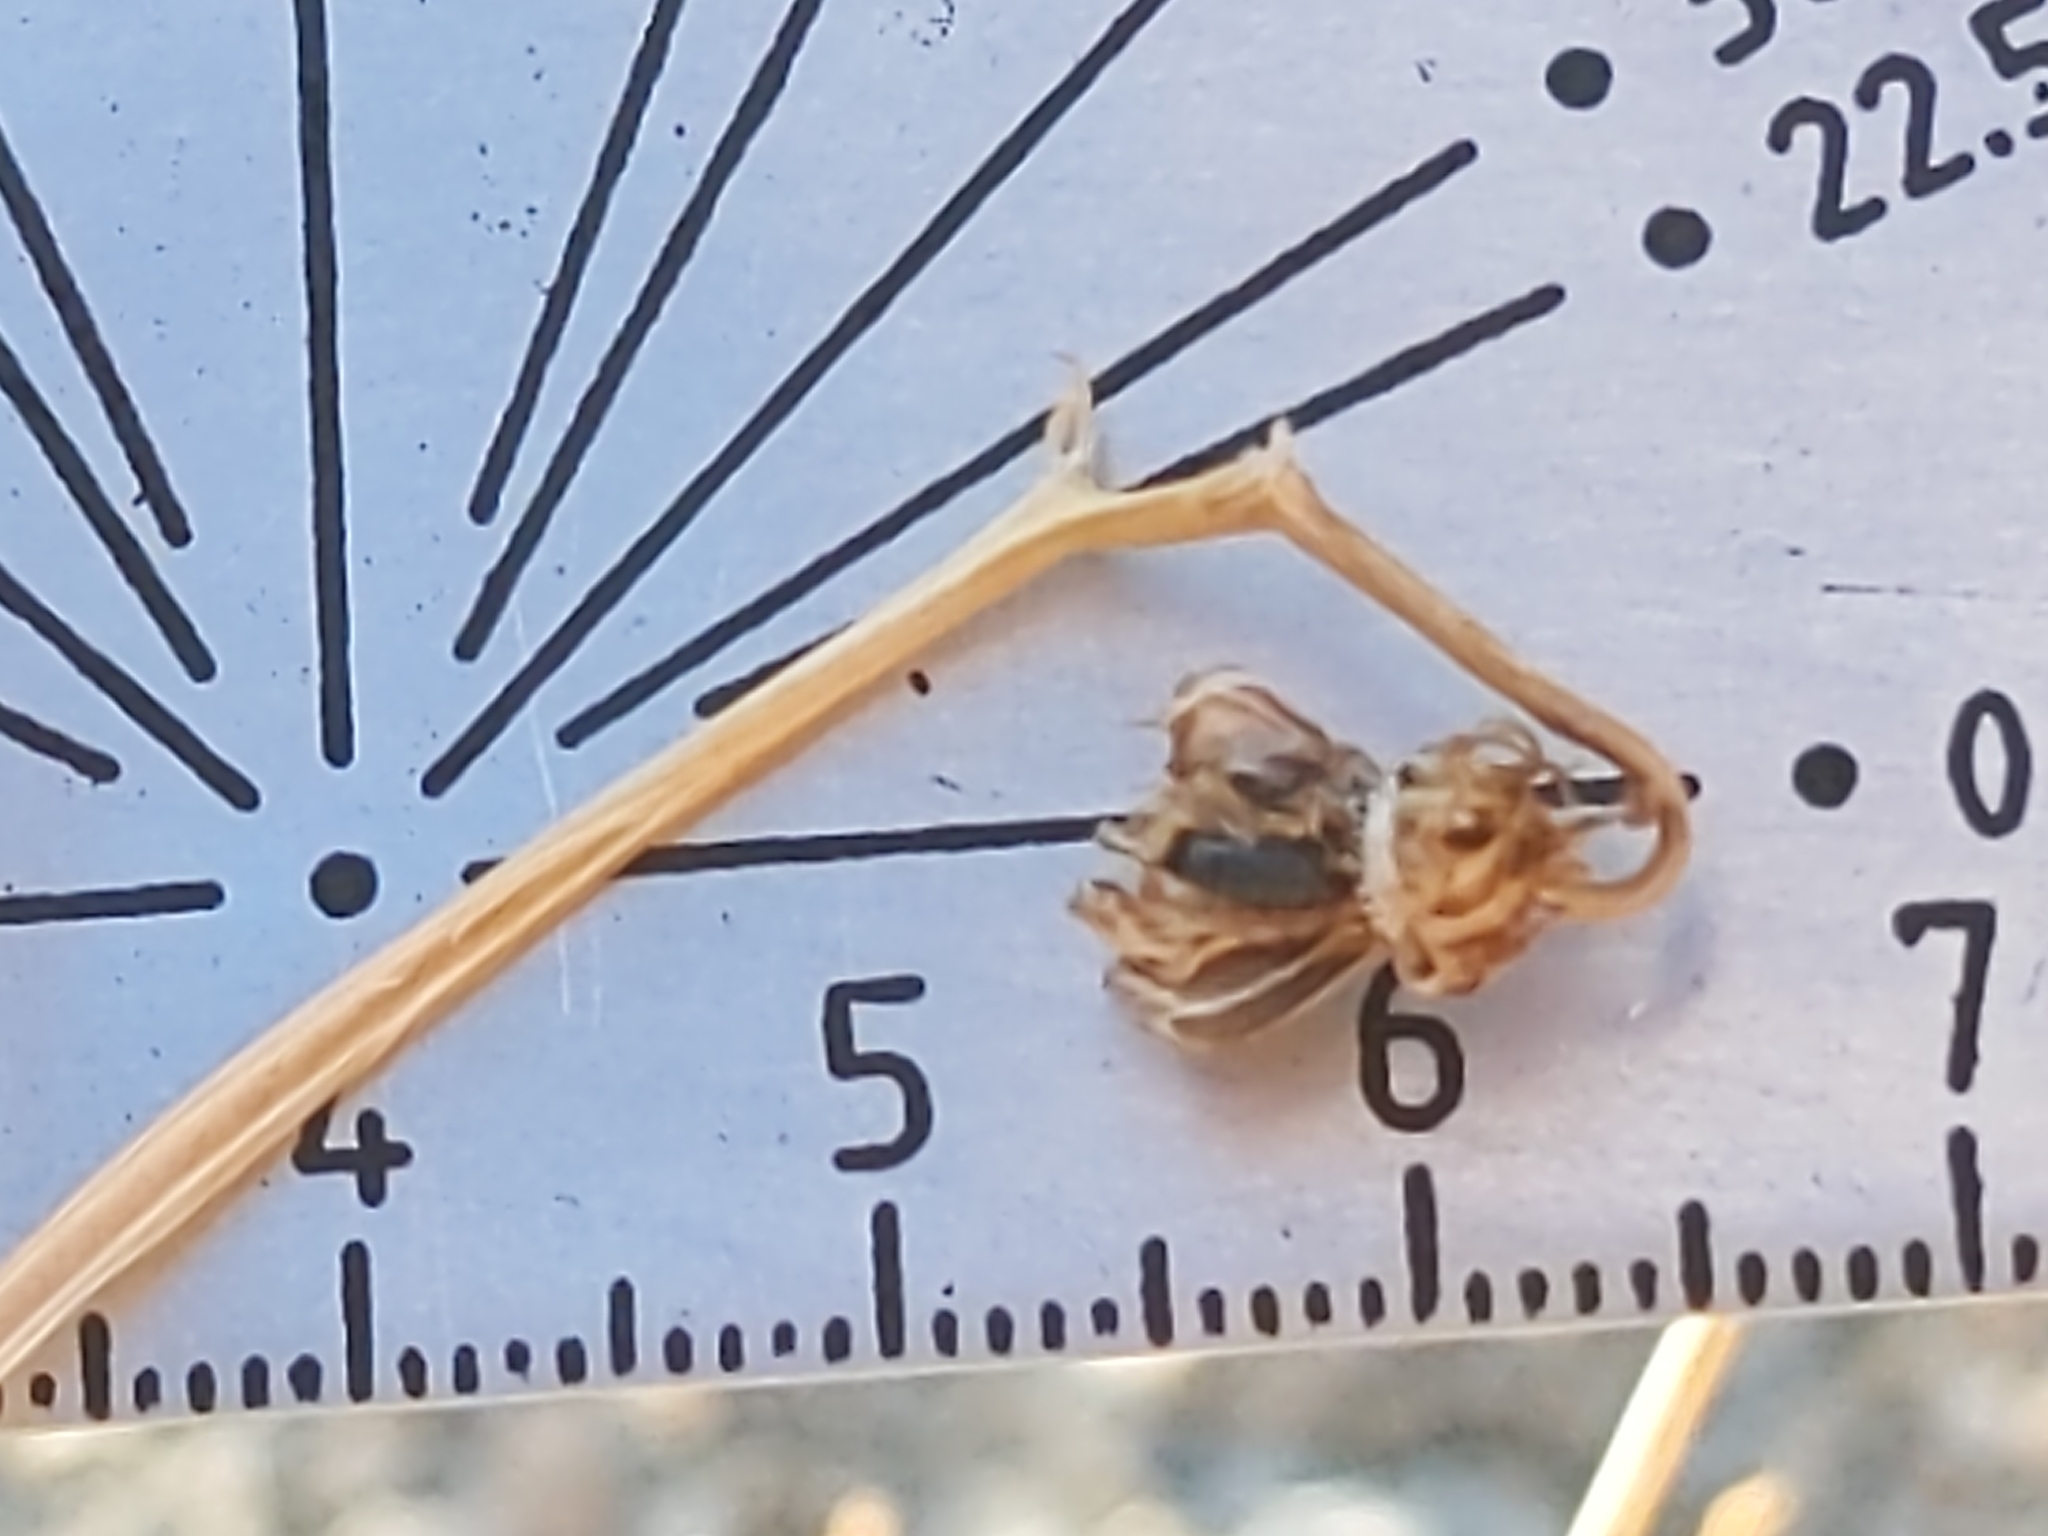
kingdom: Plantae
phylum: Tracheophyta
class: Magnoliopsida
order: Asterales
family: Asteraceae
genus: Encelia
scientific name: Encelia farinosa
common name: Brittlebush
